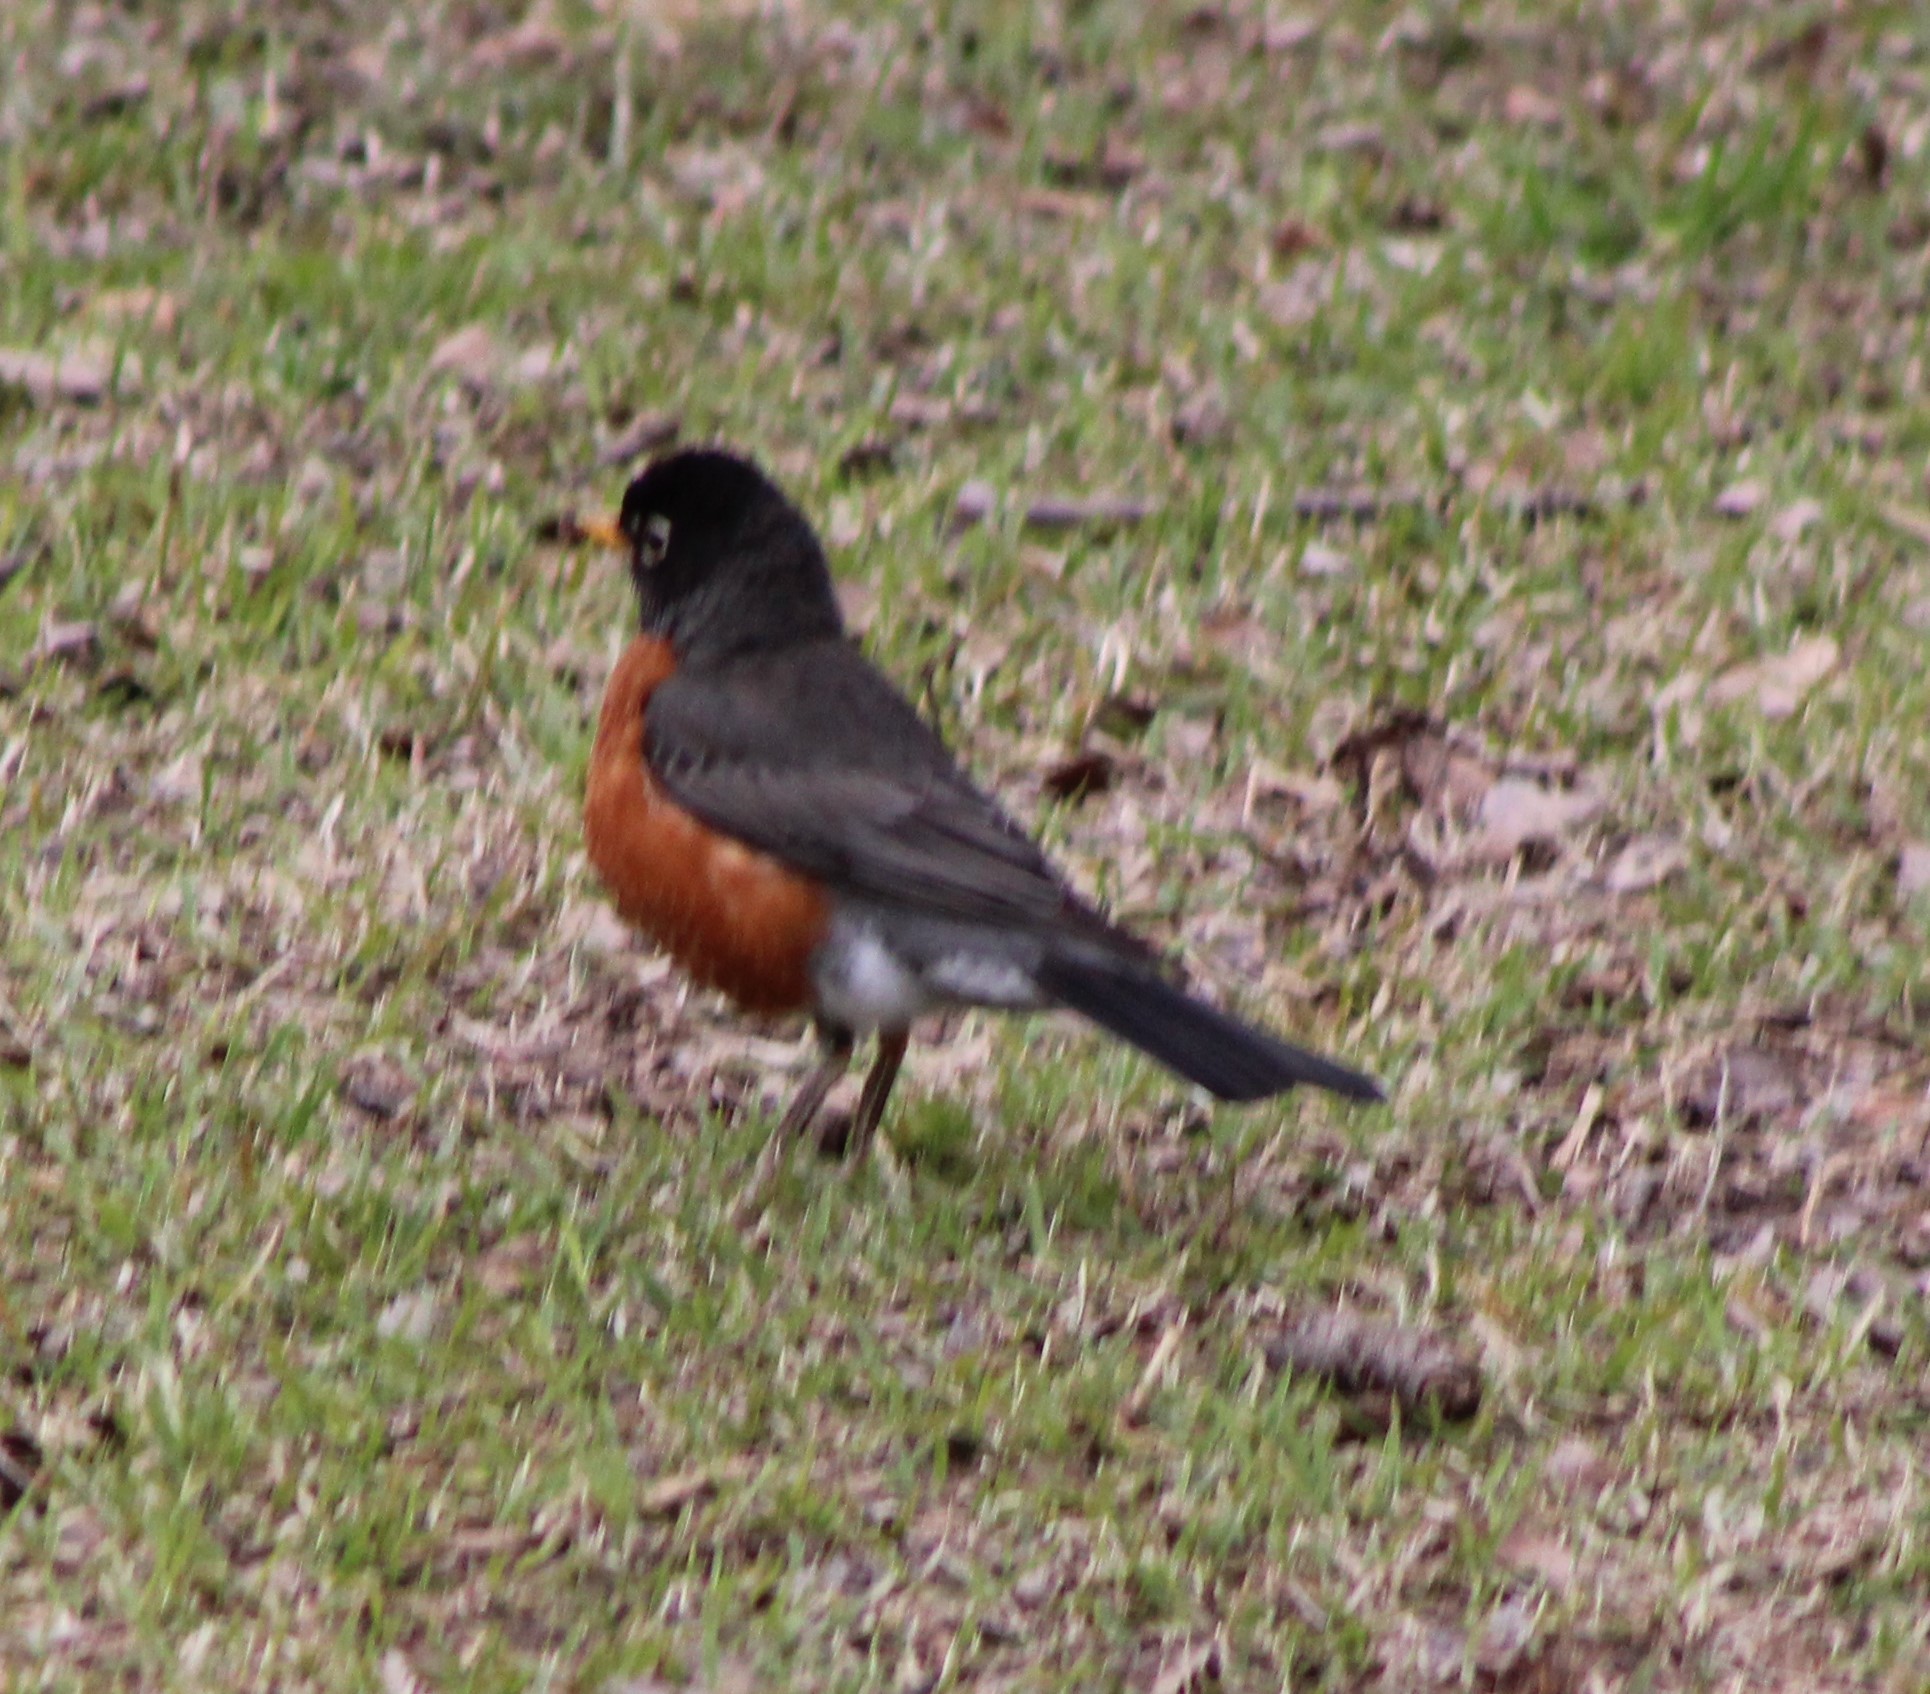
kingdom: Animalia
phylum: Chordata
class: Aves
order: Passeriformes
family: Turdidae
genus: Turdus
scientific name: Turdus migratorius
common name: American robin
